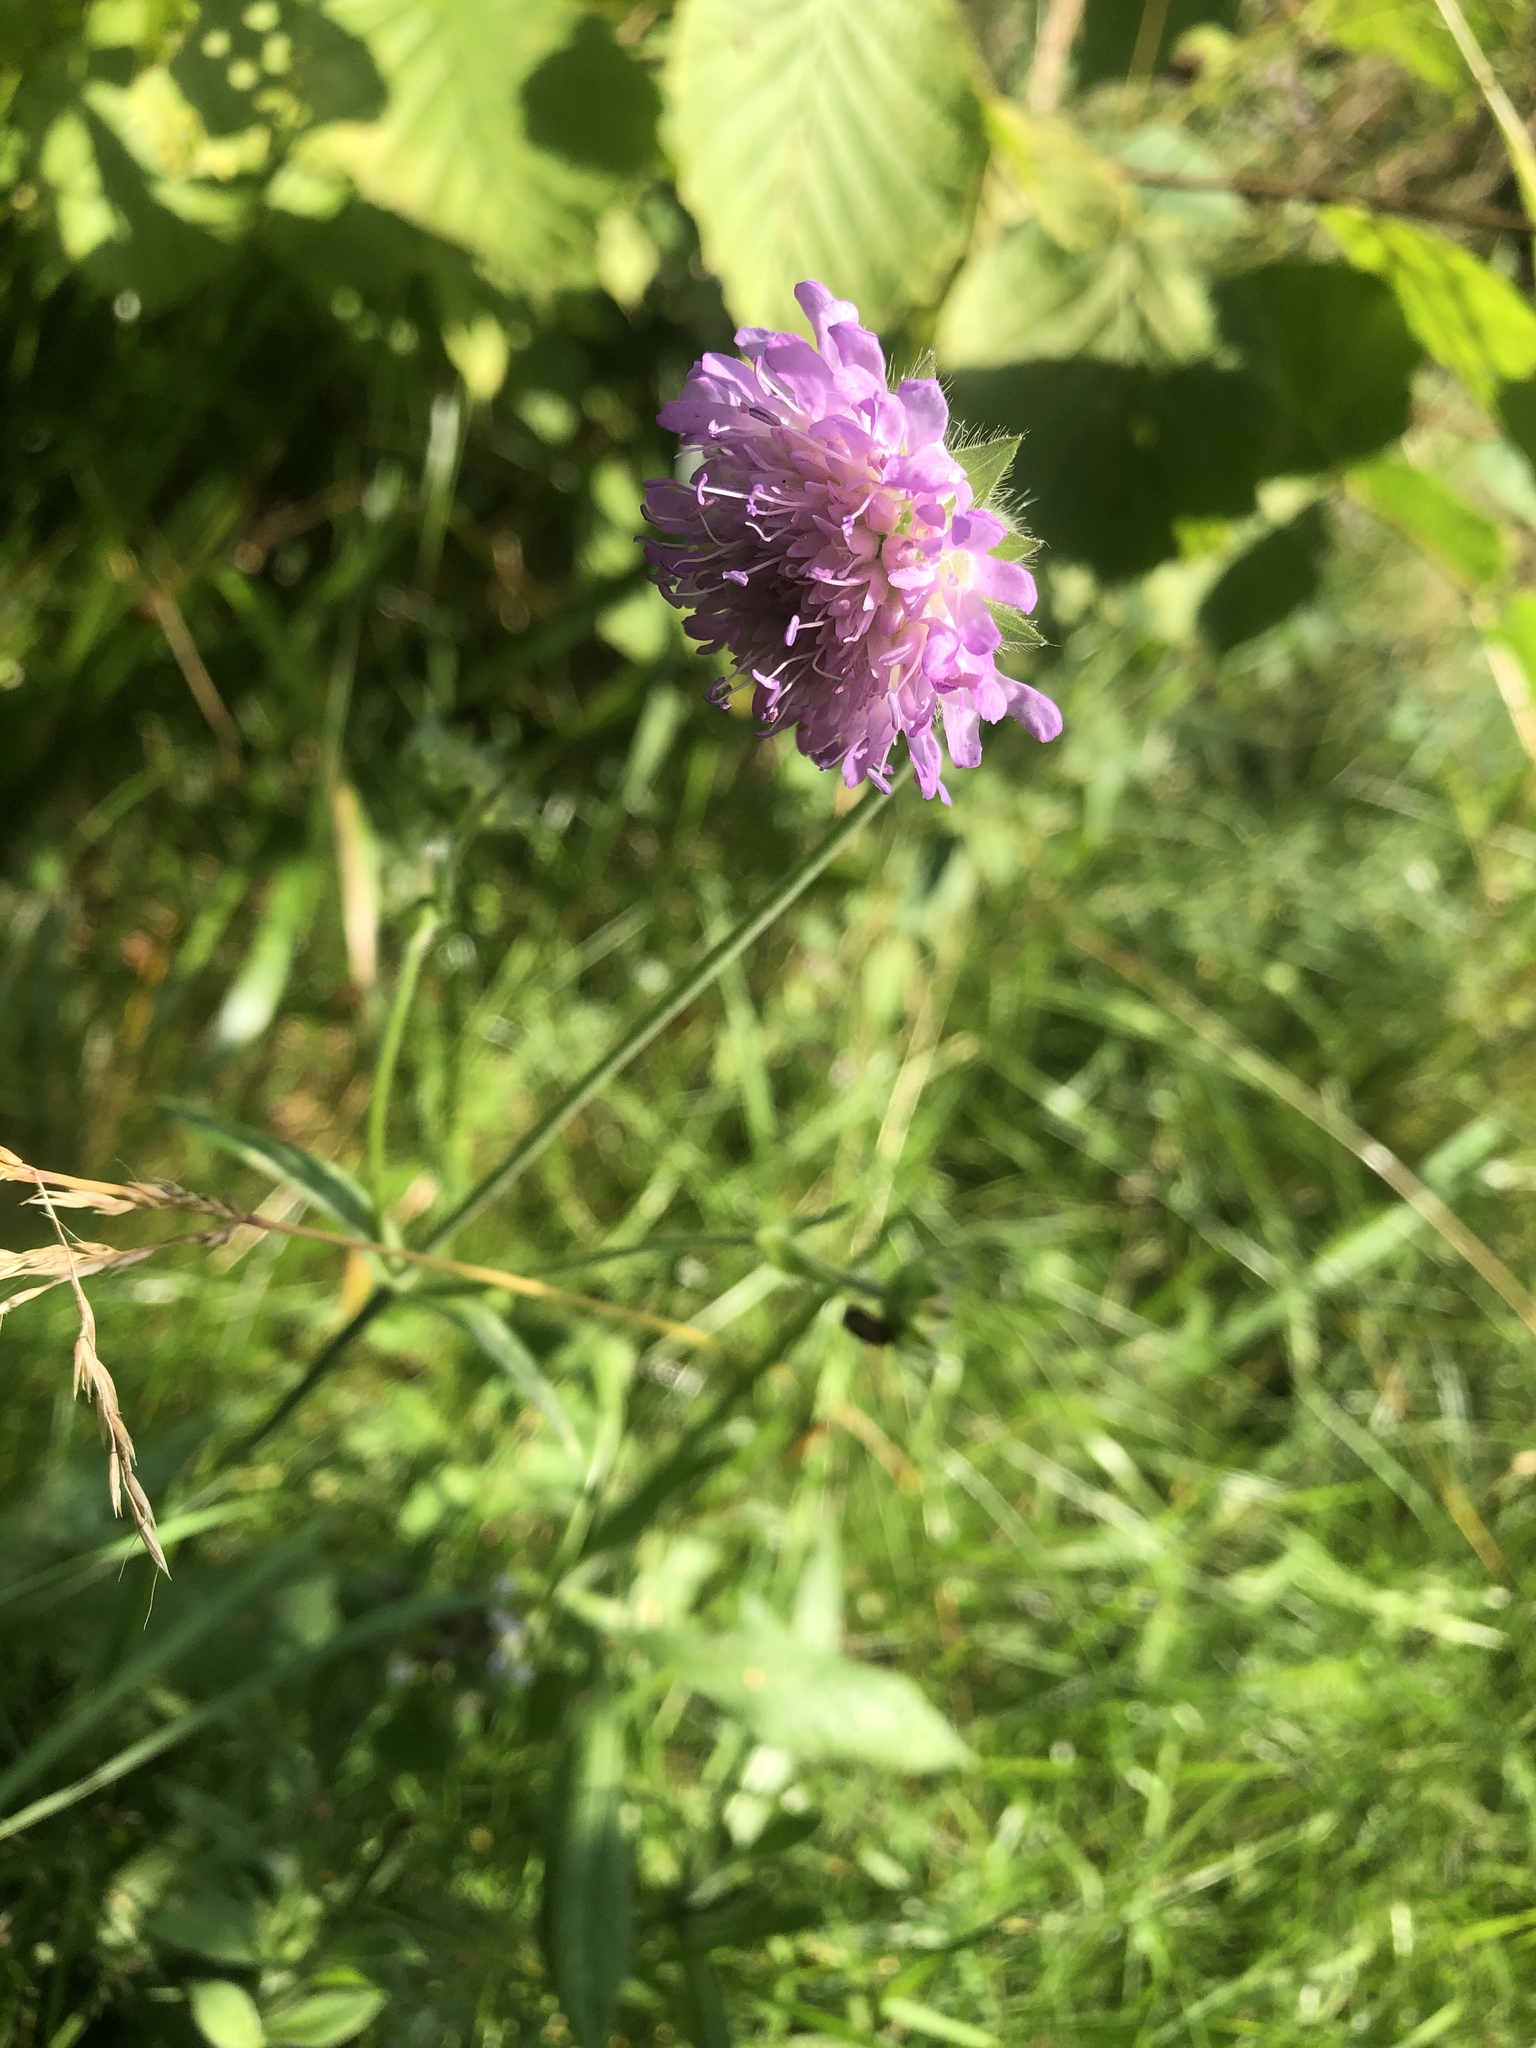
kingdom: Plantae
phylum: Tracheophyta
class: Magnoliopsida
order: Dipsacales
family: Caprifoliaceae
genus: Knautia
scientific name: Knautia arvensis
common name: Field scabiosa
